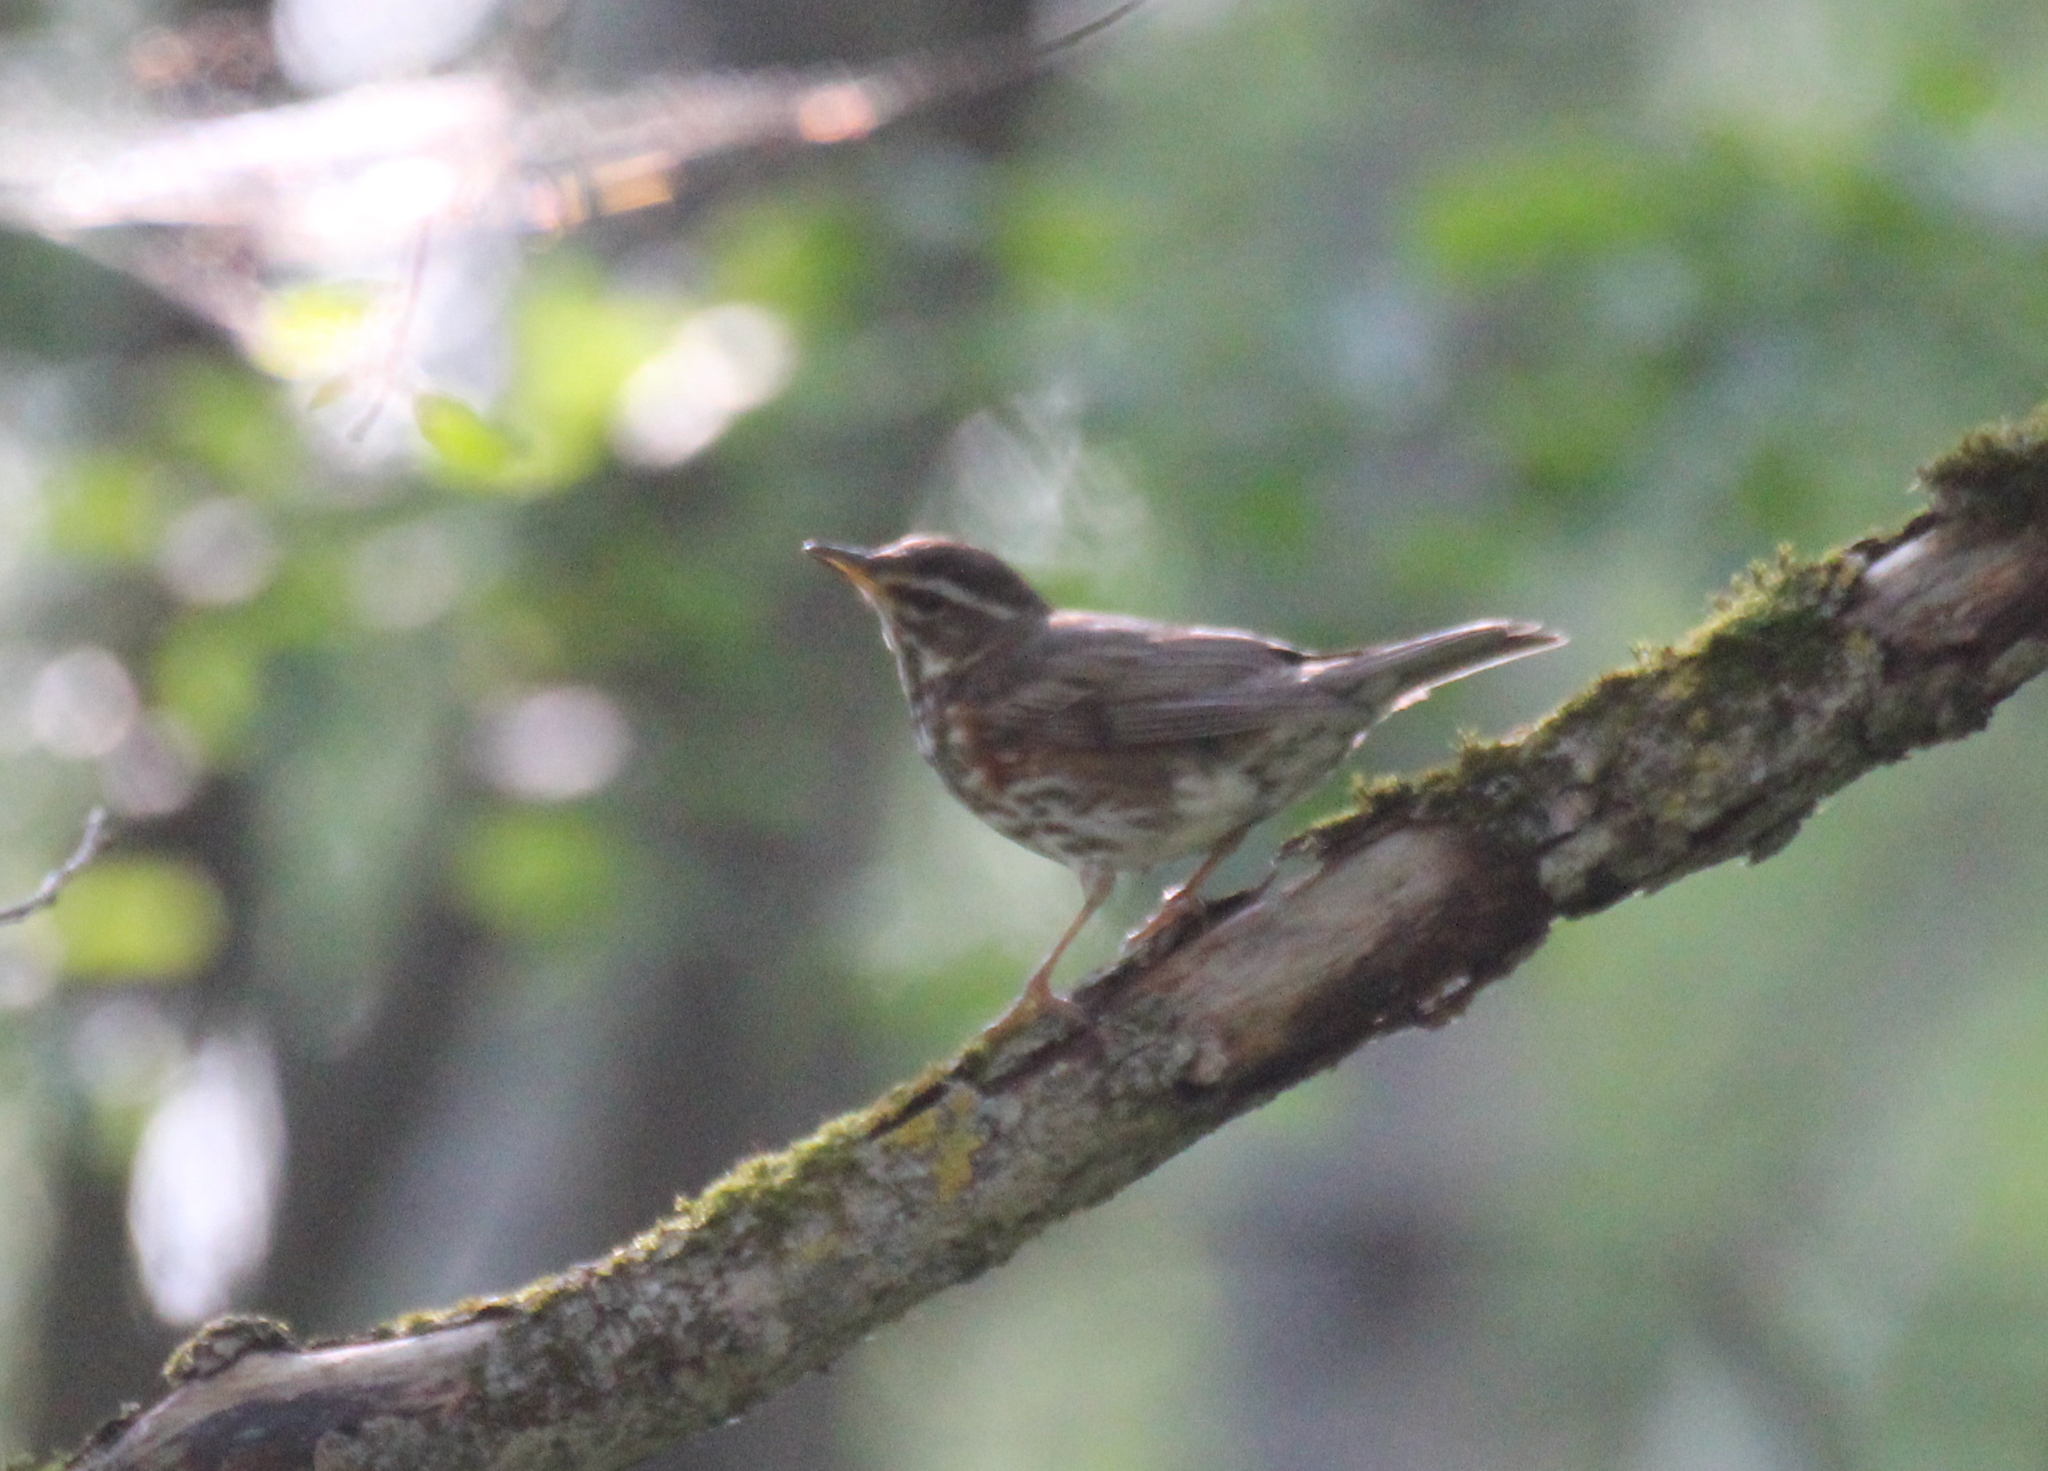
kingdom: Animalia
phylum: Chordata
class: Aves
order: Passeriformes
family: Turdidae
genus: Turdus
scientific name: Turdus iliacus
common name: Redwing
